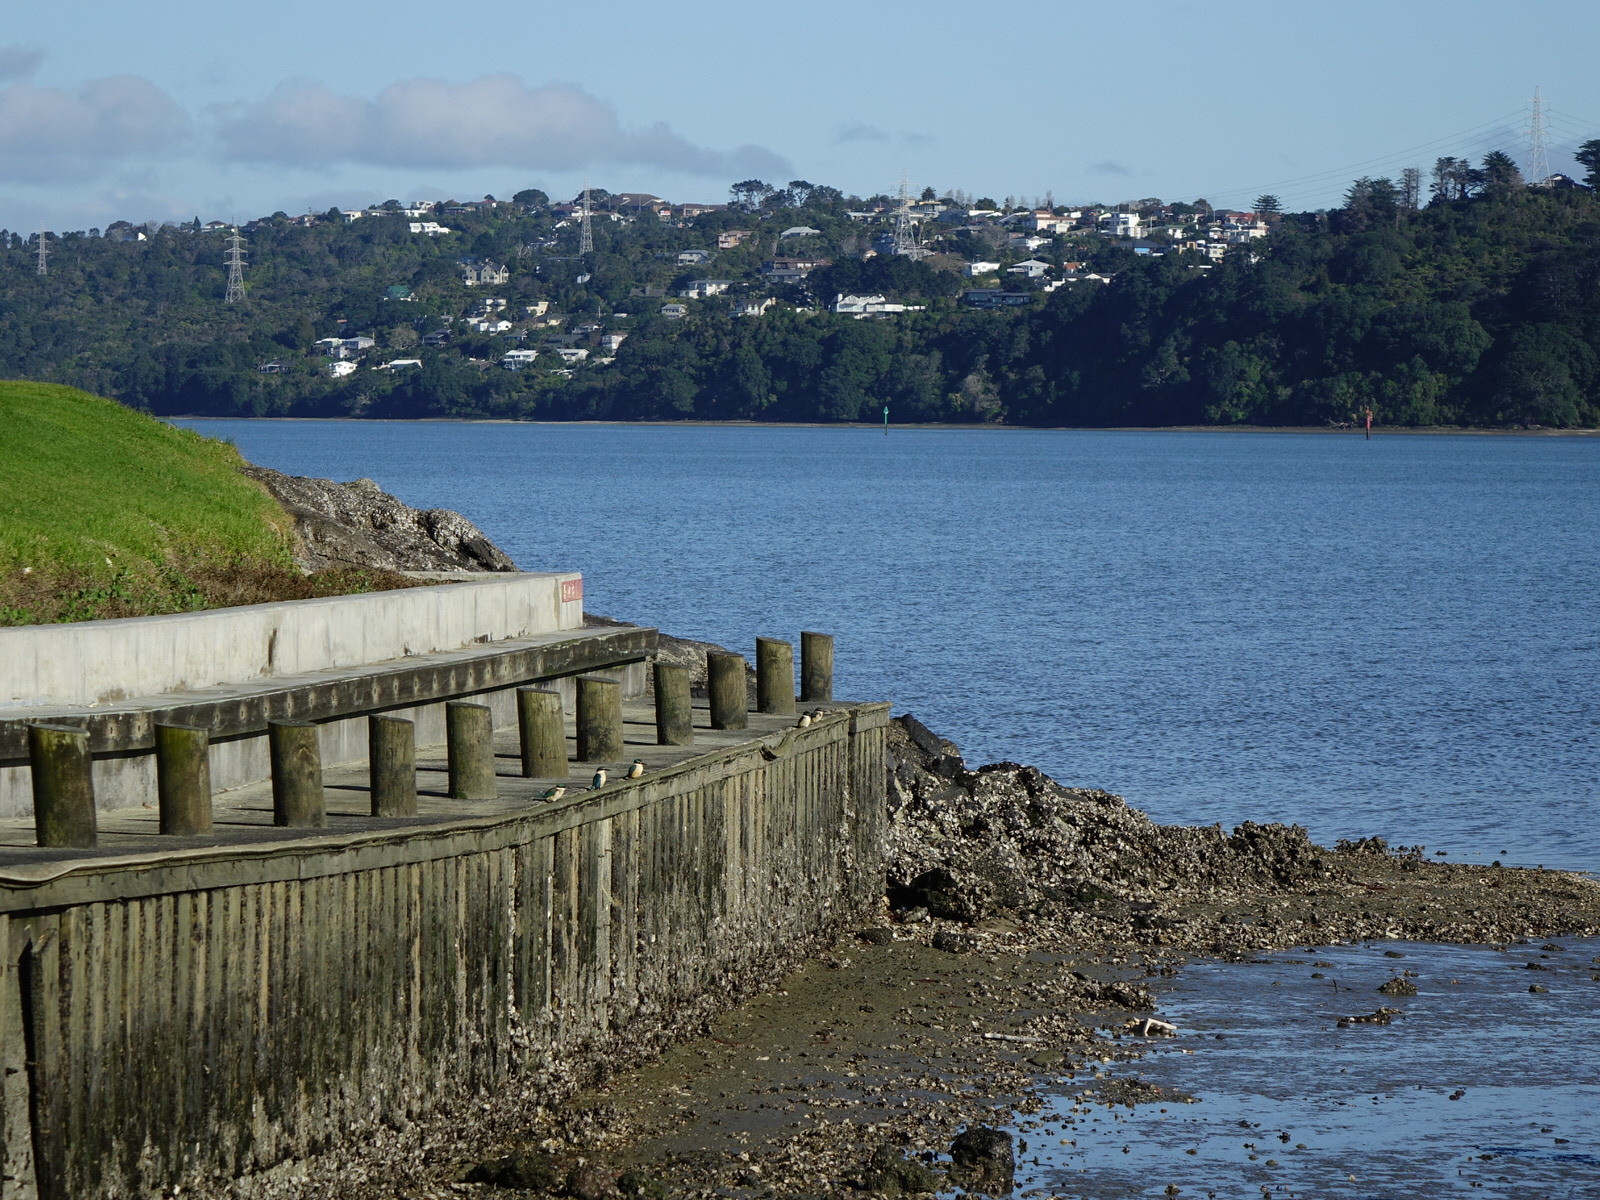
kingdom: Animalia
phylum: Chordata
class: Aves
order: Coraciiformes
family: Alcedinidae
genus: Todiramphus
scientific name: Todiramphus sanctus
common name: Sacred kingfisher
